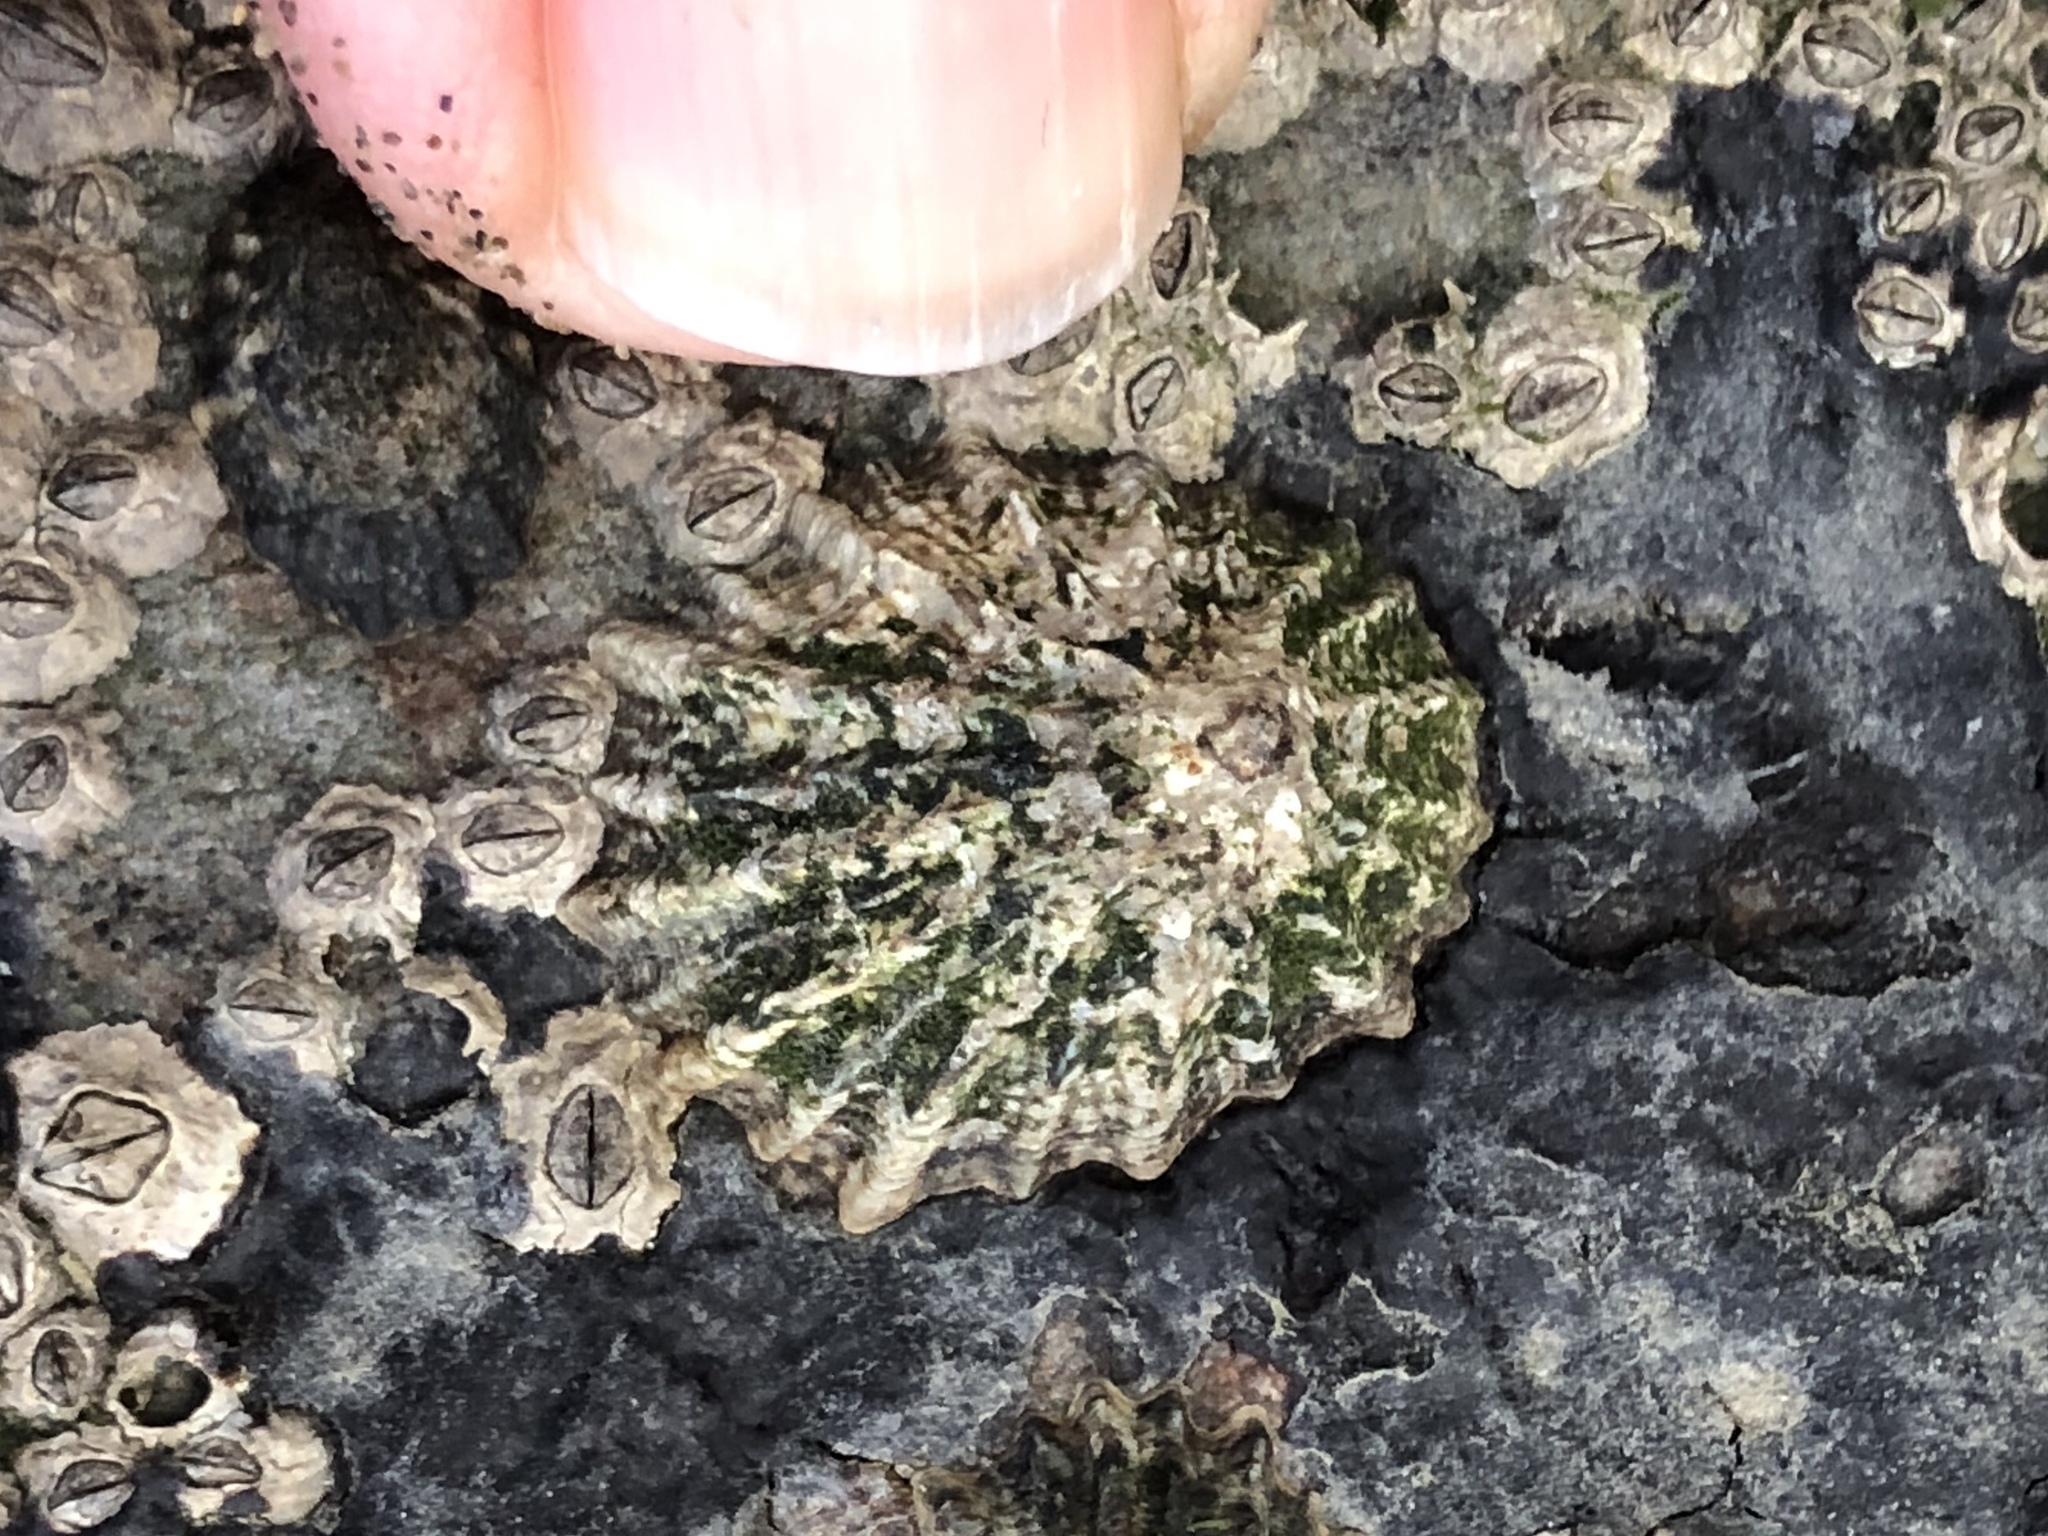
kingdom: Animalia
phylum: Mollusca
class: Gastropoda
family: Lottiidae
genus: Lottia
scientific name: Lottia scabra
